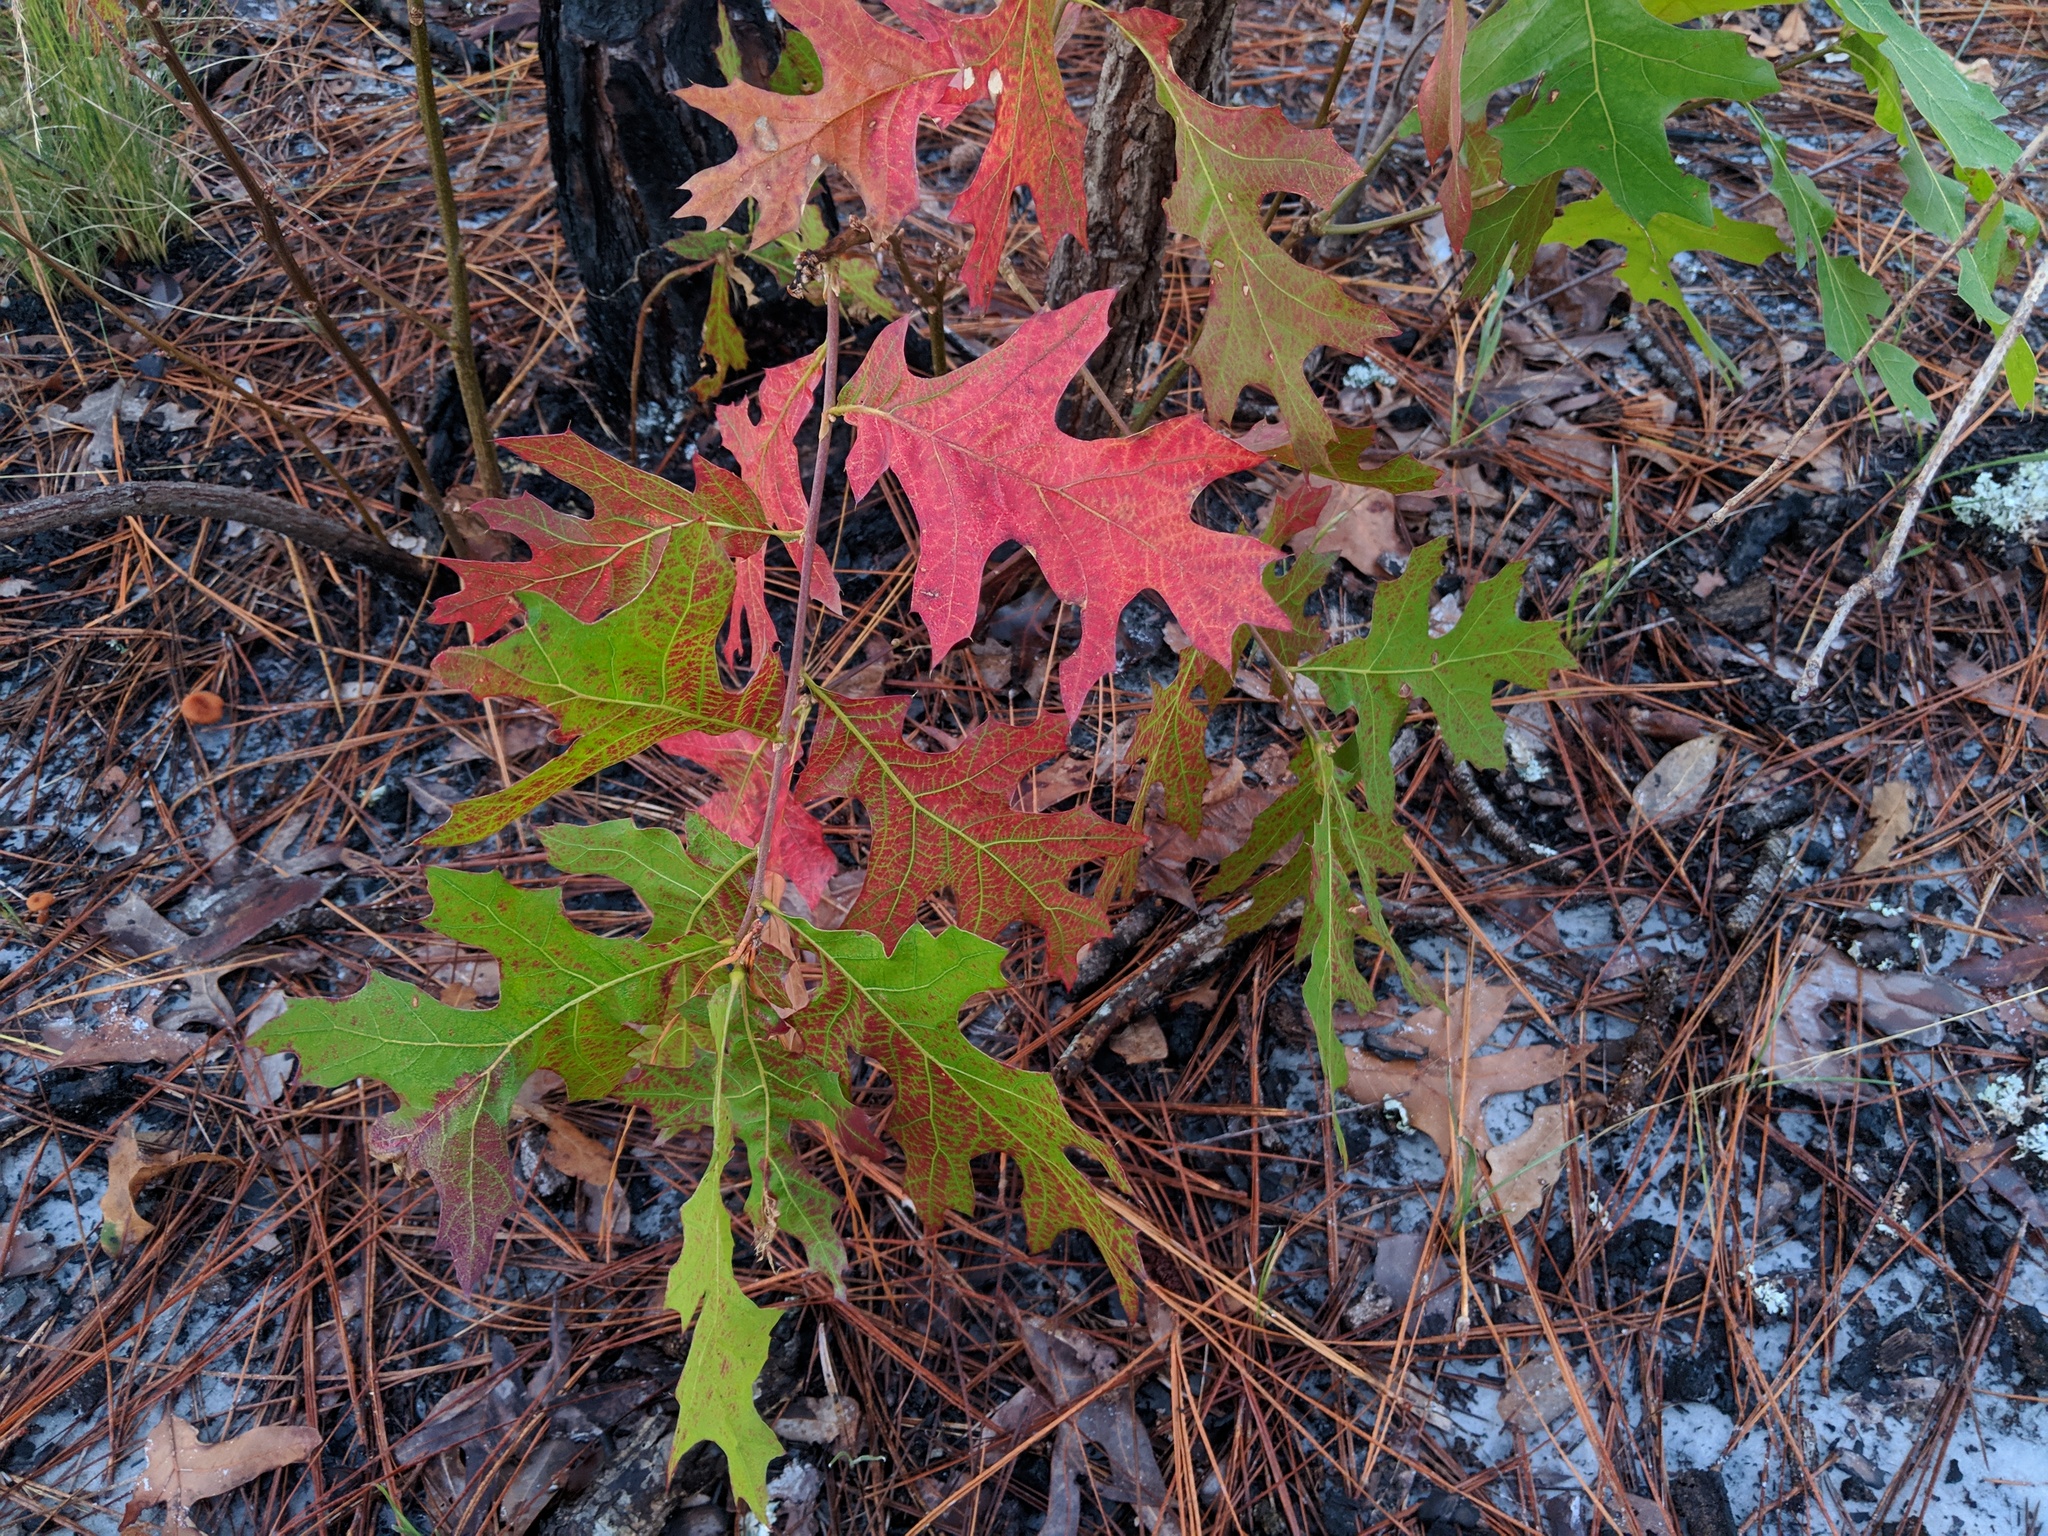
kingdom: Plantae
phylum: Tracheophyta
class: Magnoliopsida
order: Fagales
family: Fagaceae
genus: Quercus
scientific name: Quercus laevis
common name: Turkey oak
